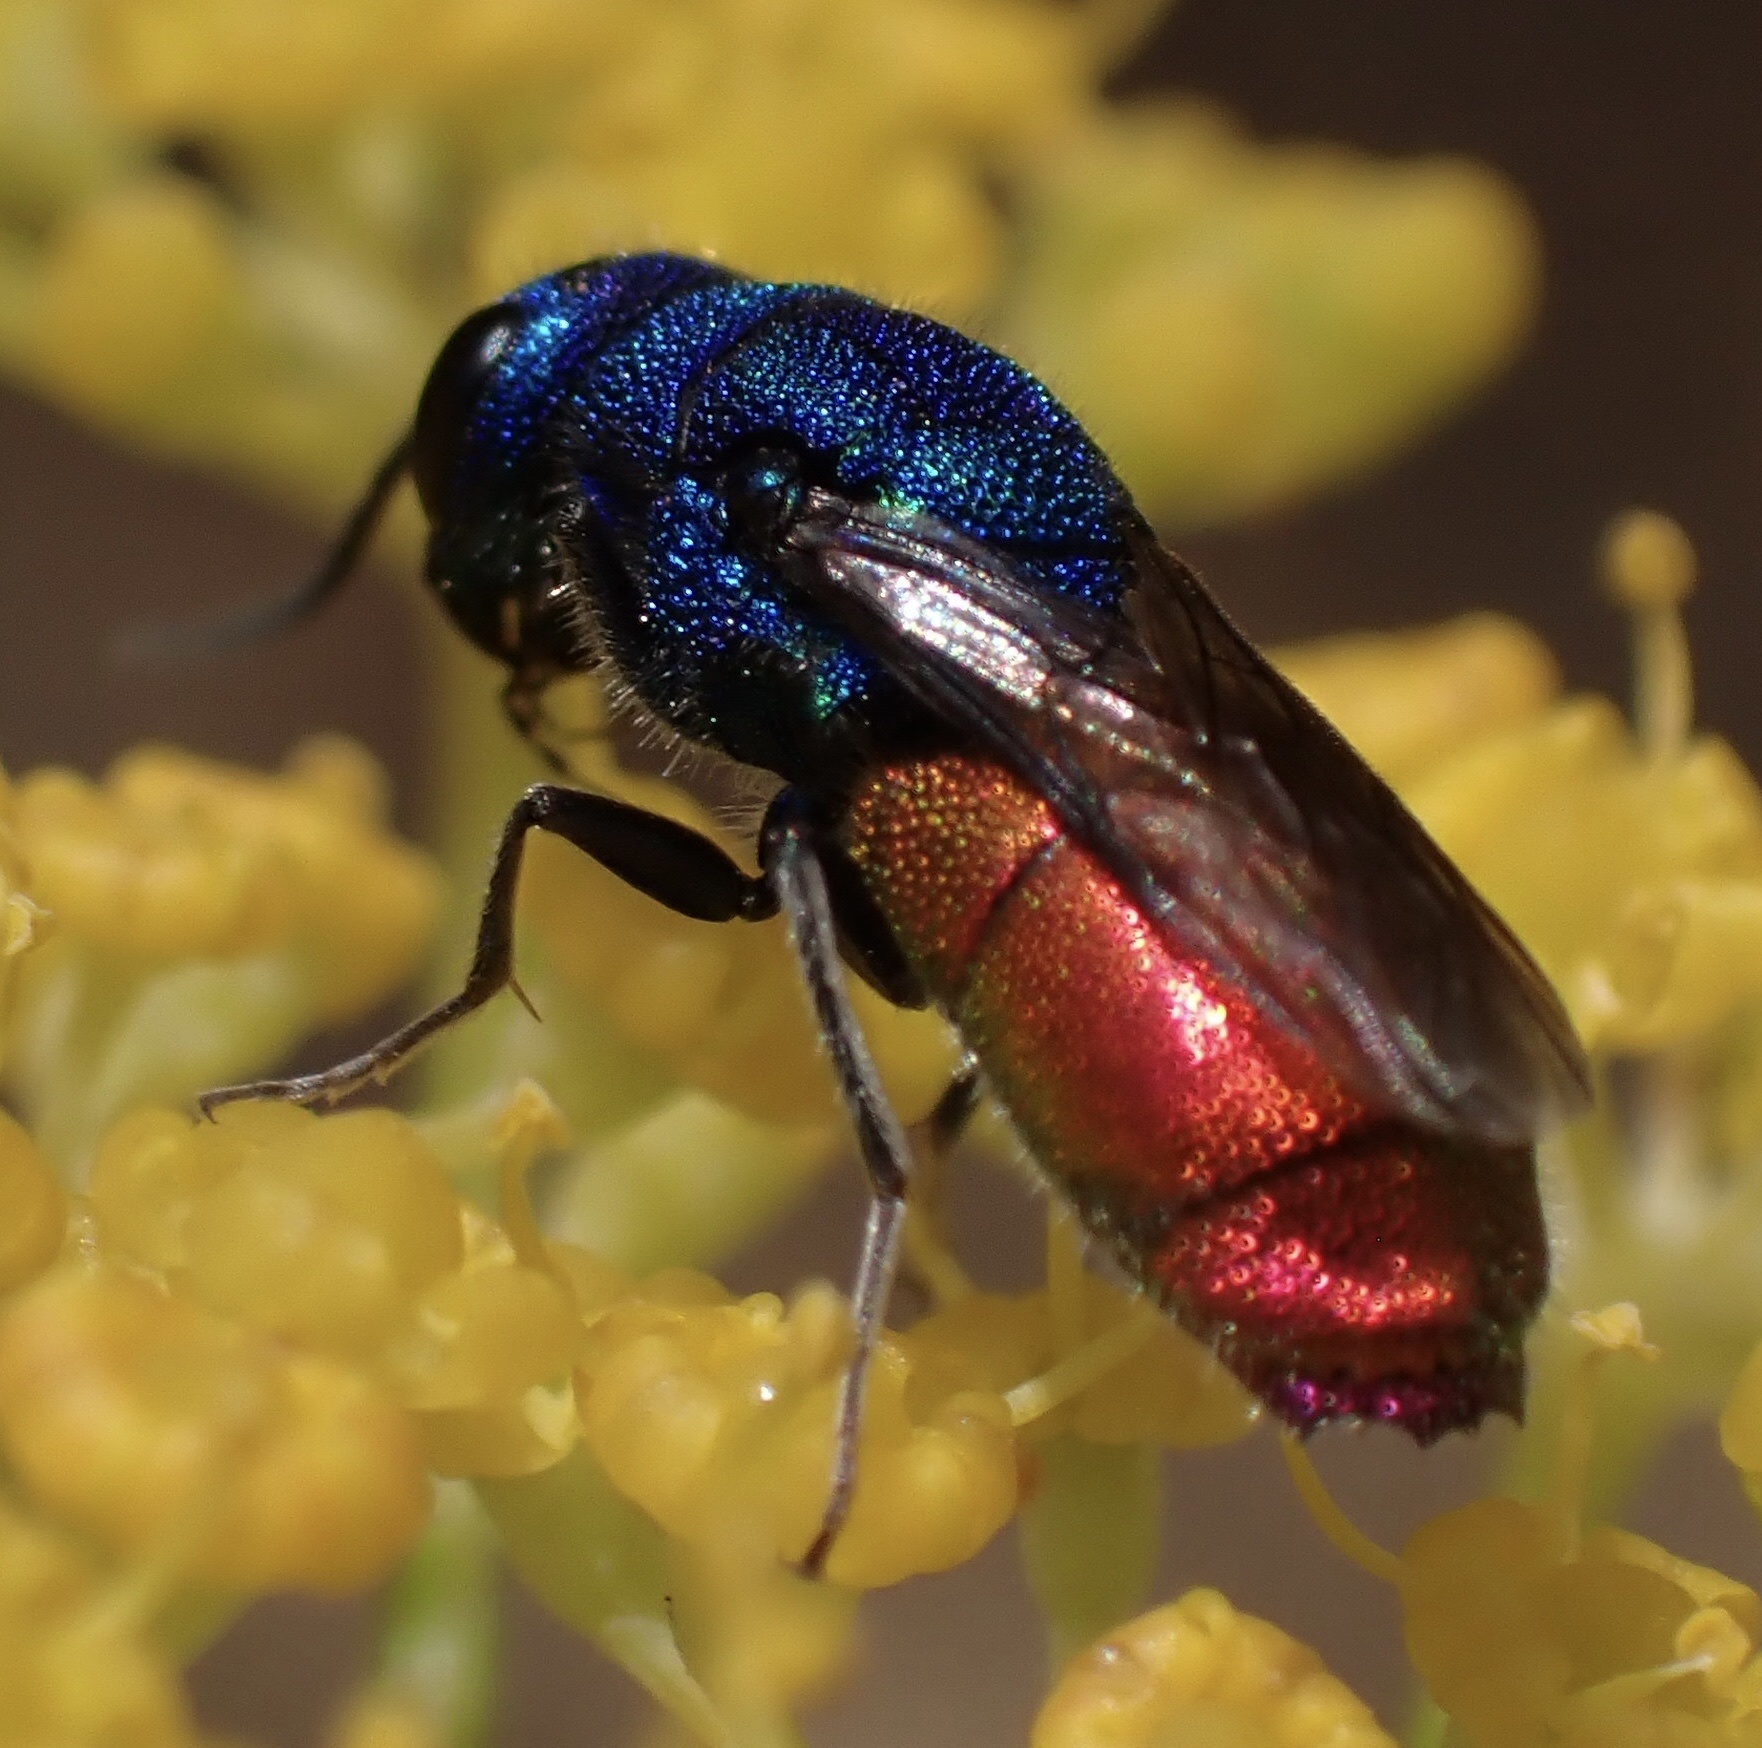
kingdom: Animalia
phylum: Arthropoda
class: Insecta
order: Hymenoptera
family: Chrysididae
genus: Chrysis
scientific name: Chrysis inaequalis
